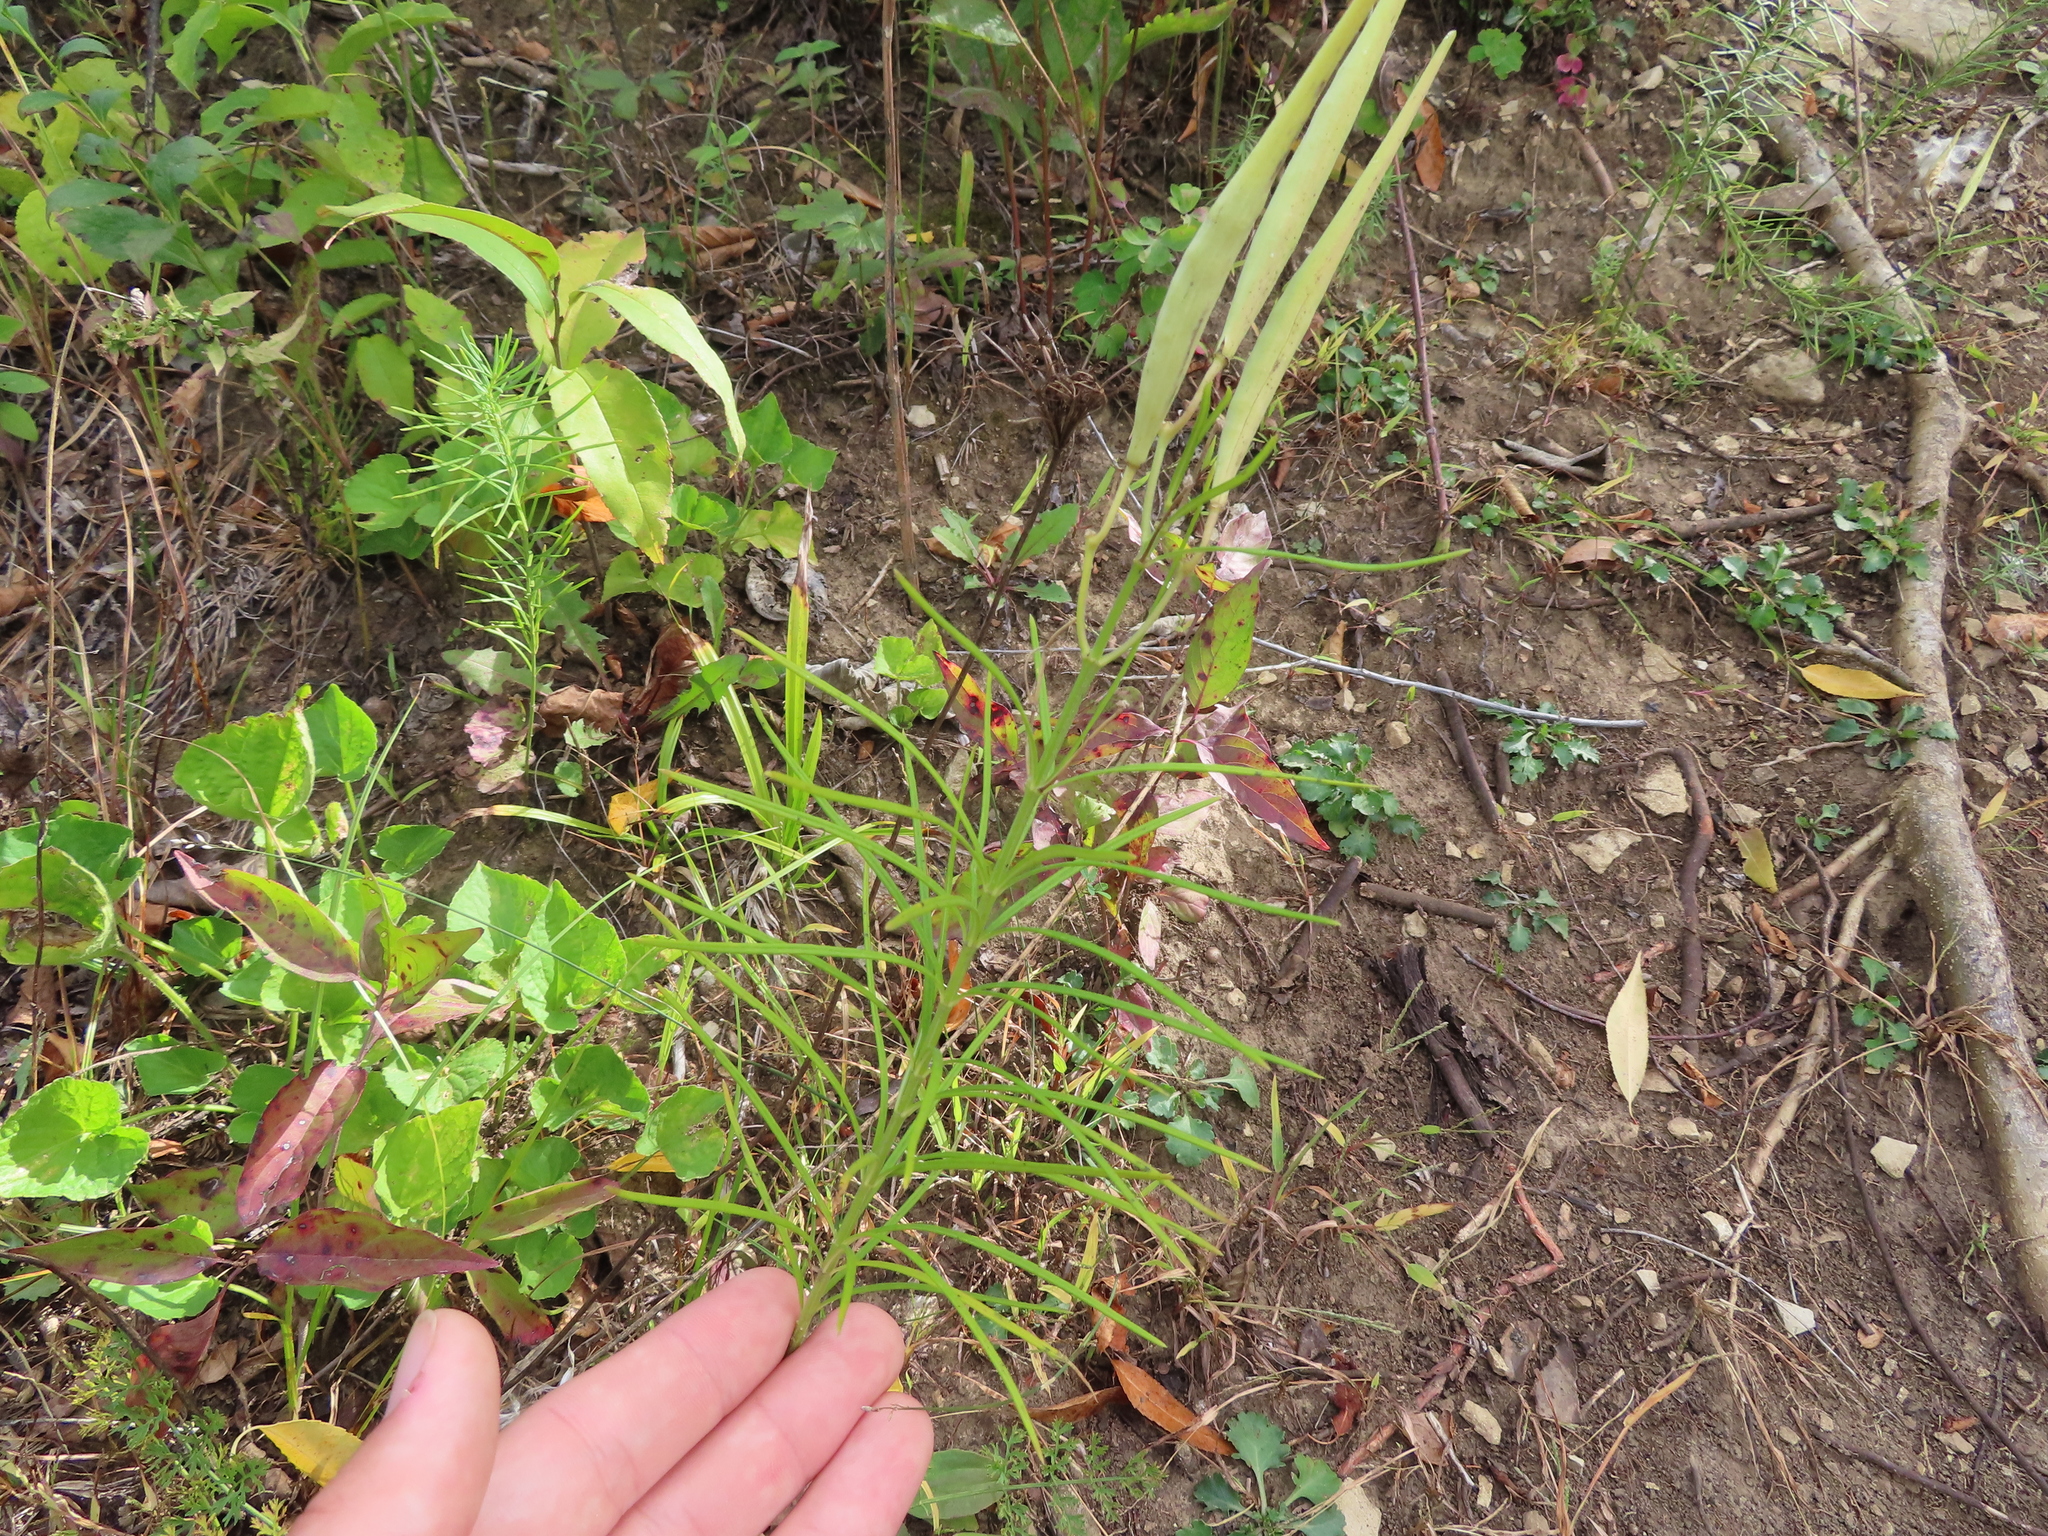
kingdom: Plantae
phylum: Tracheophyta
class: Magnoliopsida
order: Gentianales
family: Apocynaceae
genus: Asclepias
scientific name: Asclepias verticillata
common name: Eastern whorled milkweed
